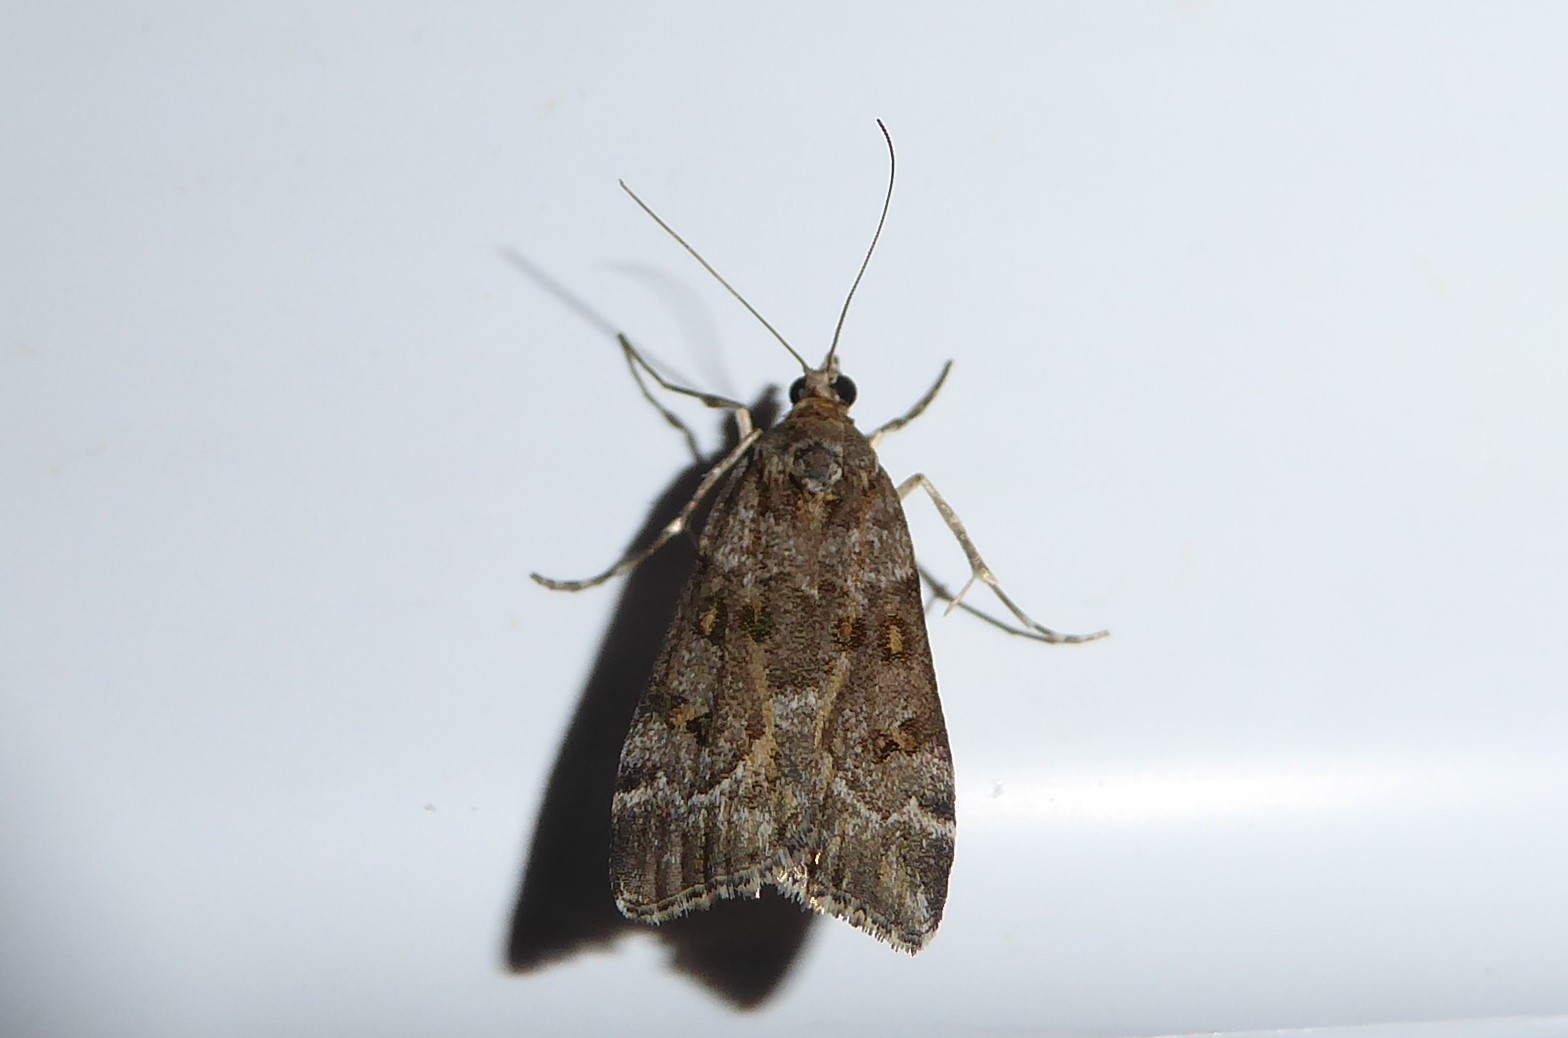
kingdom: Animalia
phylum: Arthropoda
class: Insecta
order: Lepidoptera
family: Crambidae
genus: Eudonia
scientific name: Eudonia diphtheralis
